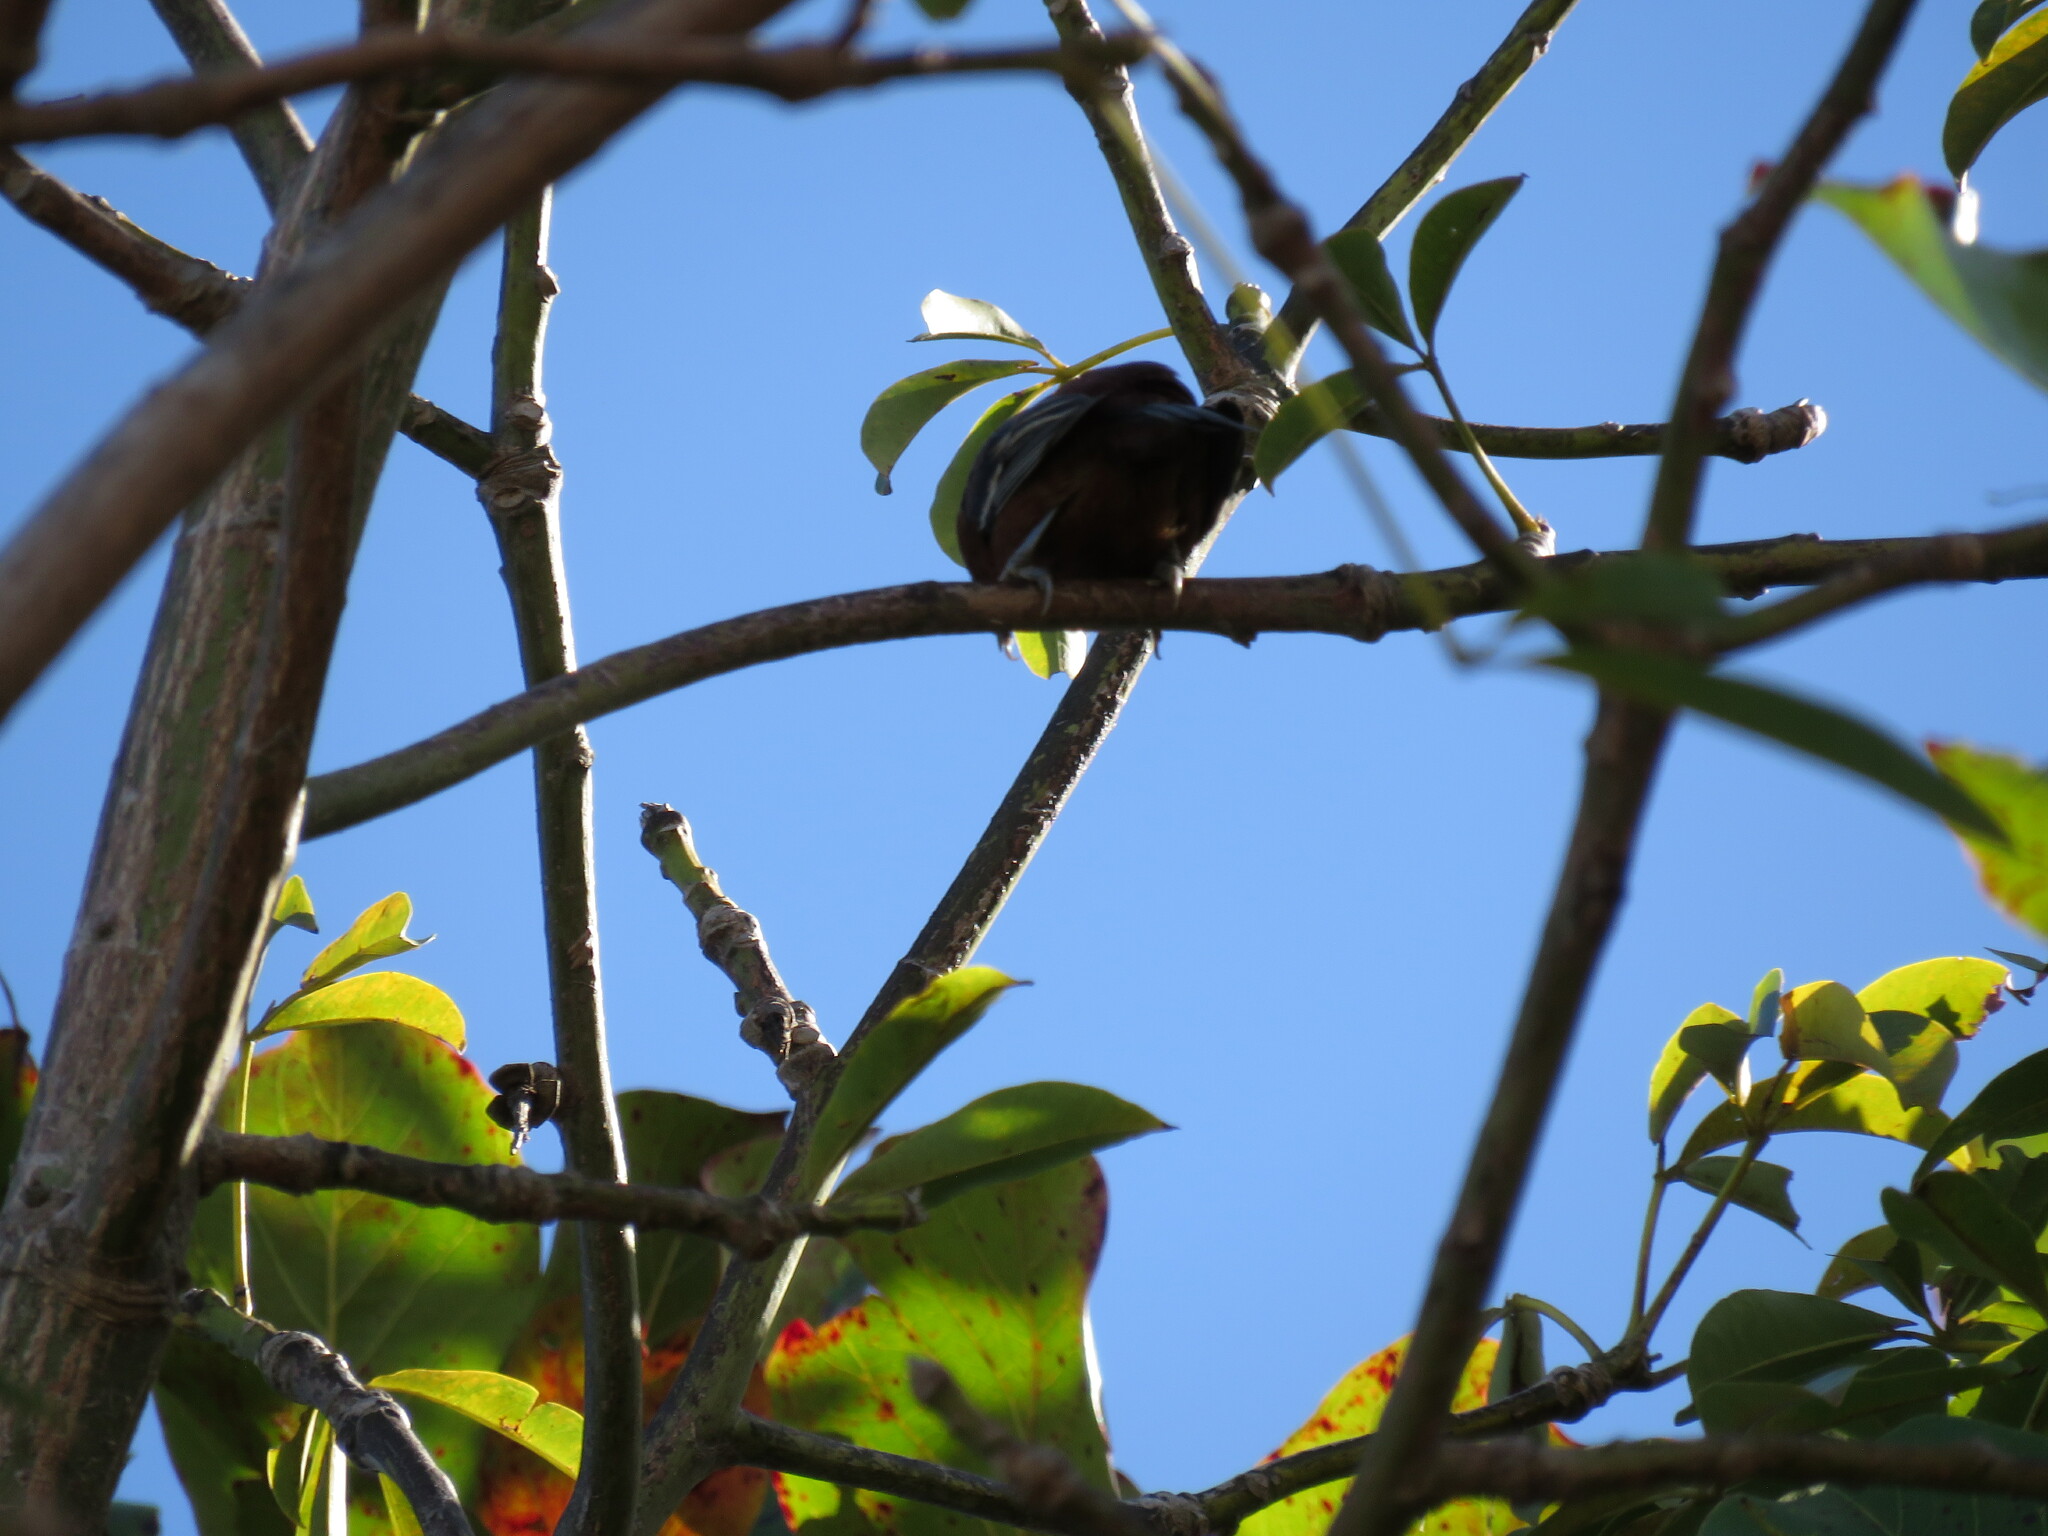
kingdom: Animalia
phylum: Chordata
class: Aves
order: Passeriformes
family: Icteridae
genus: Icterus
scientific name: Icterus spurius
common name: Orchard oriole
